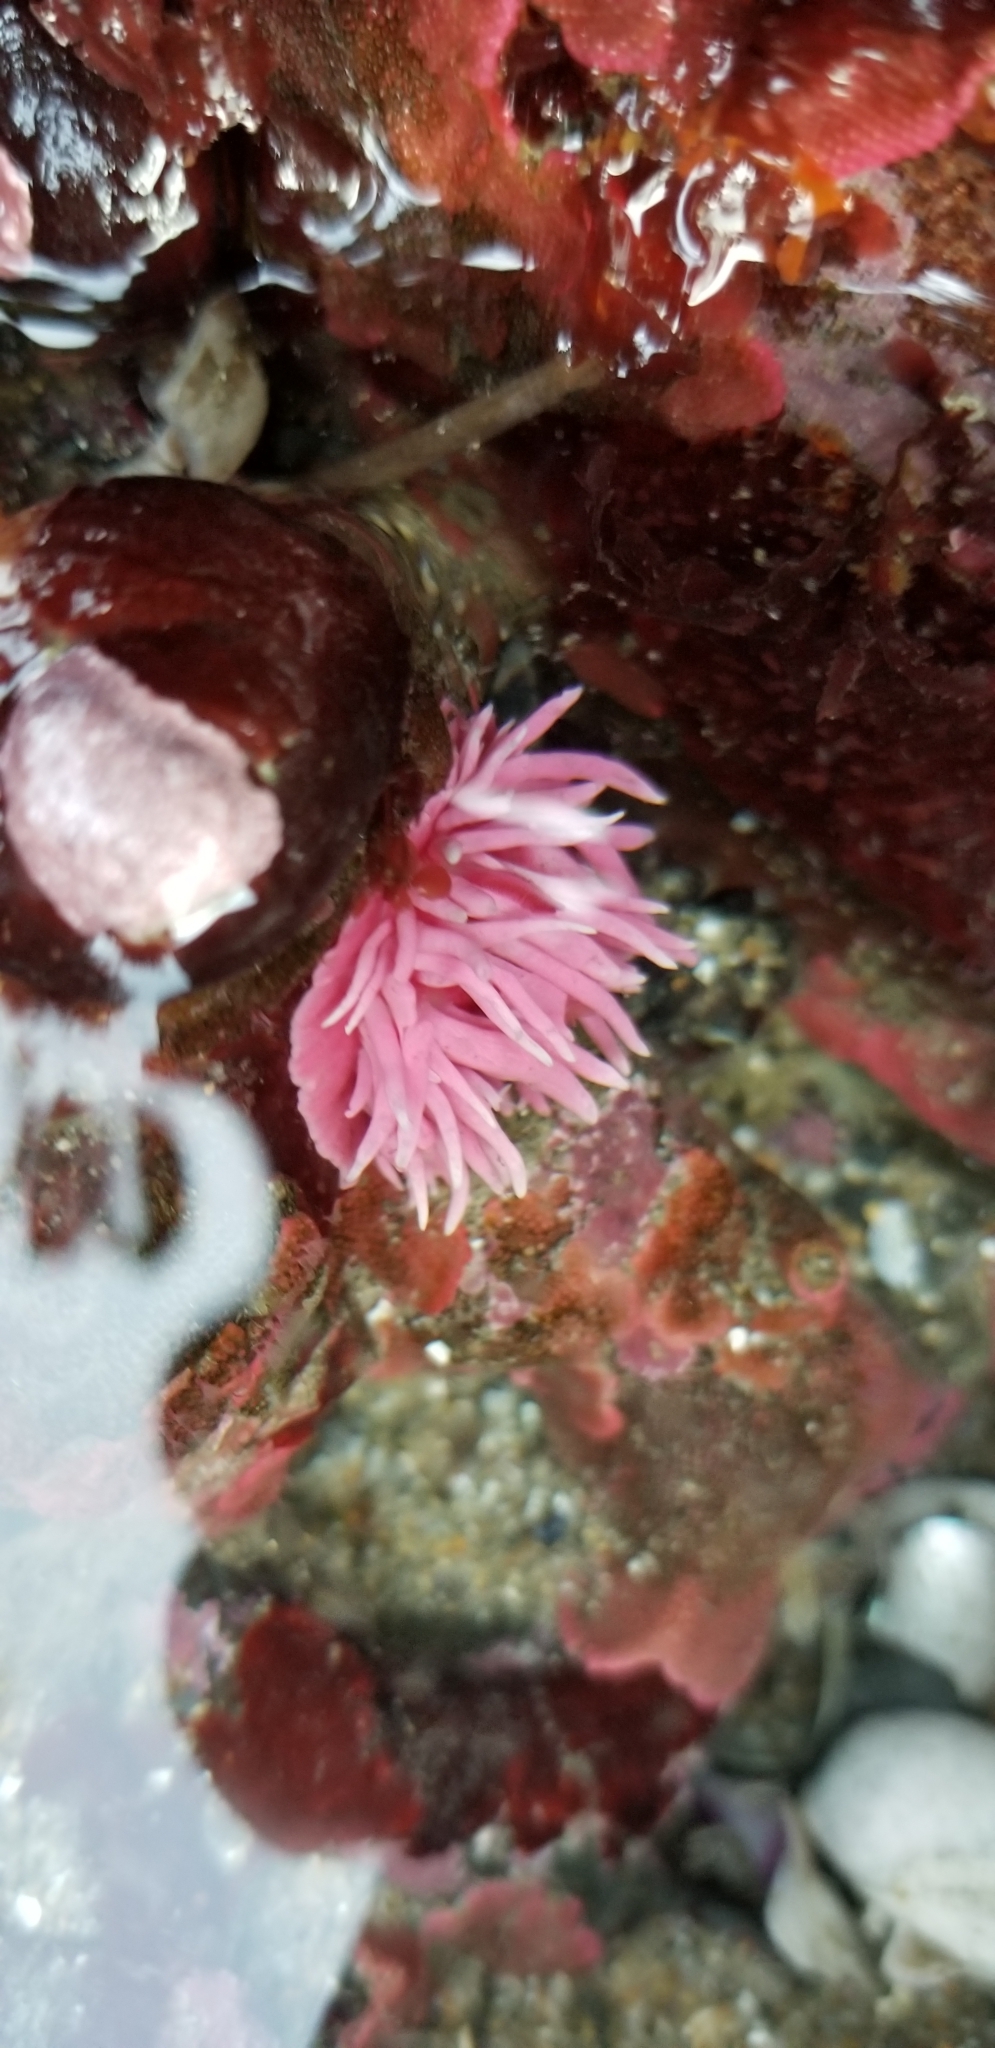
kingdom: Animalia
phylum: Mollusca
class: Gastropoda
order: Nudibranchia
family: Goniodorididae
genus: Okenia
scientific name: Okenia
